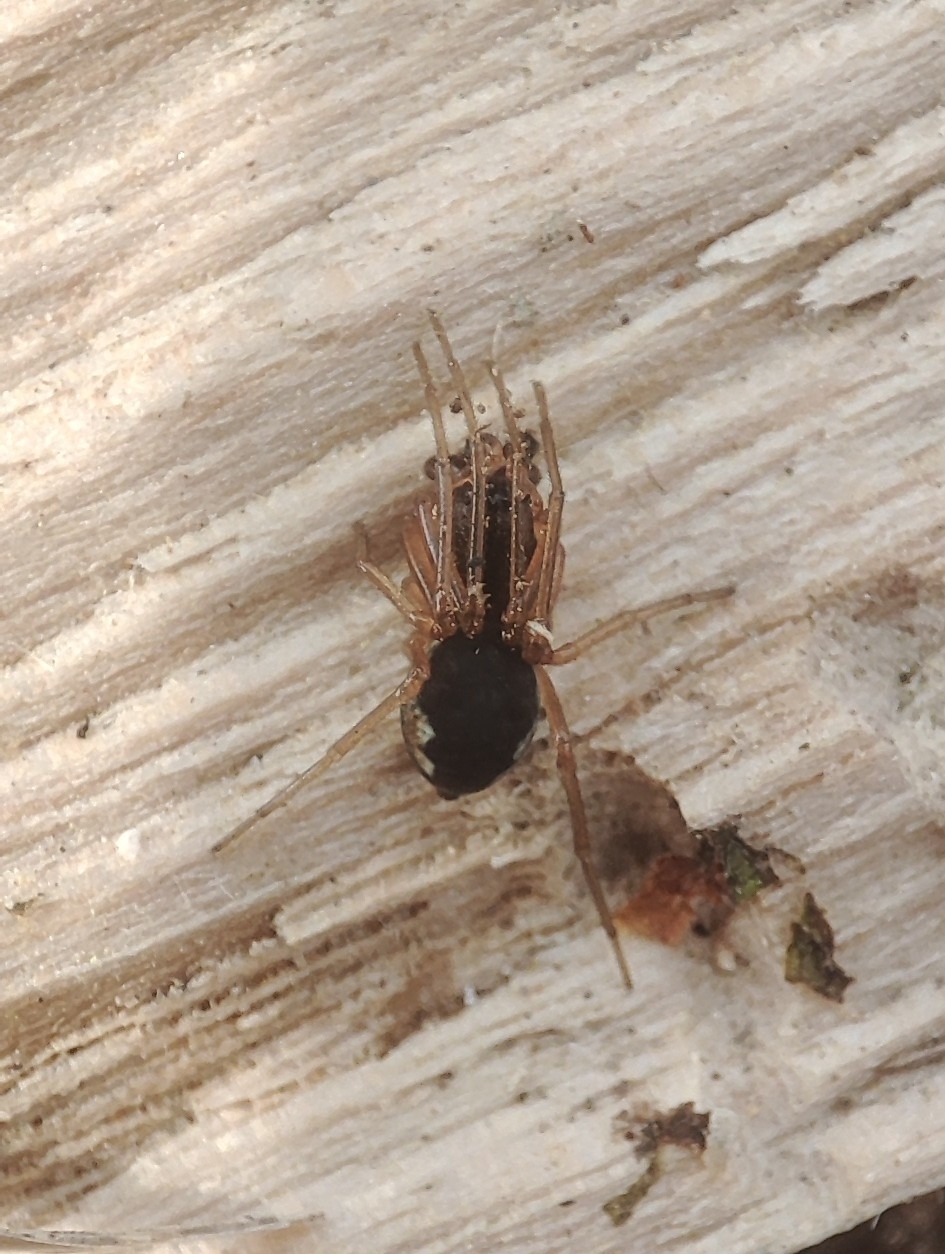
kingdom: Animalia
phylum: Arthropoda
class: Arachnida
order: Araneae
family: Tetragnathidae
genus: Pachygnatha
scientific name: Pachygnatha degeeri
